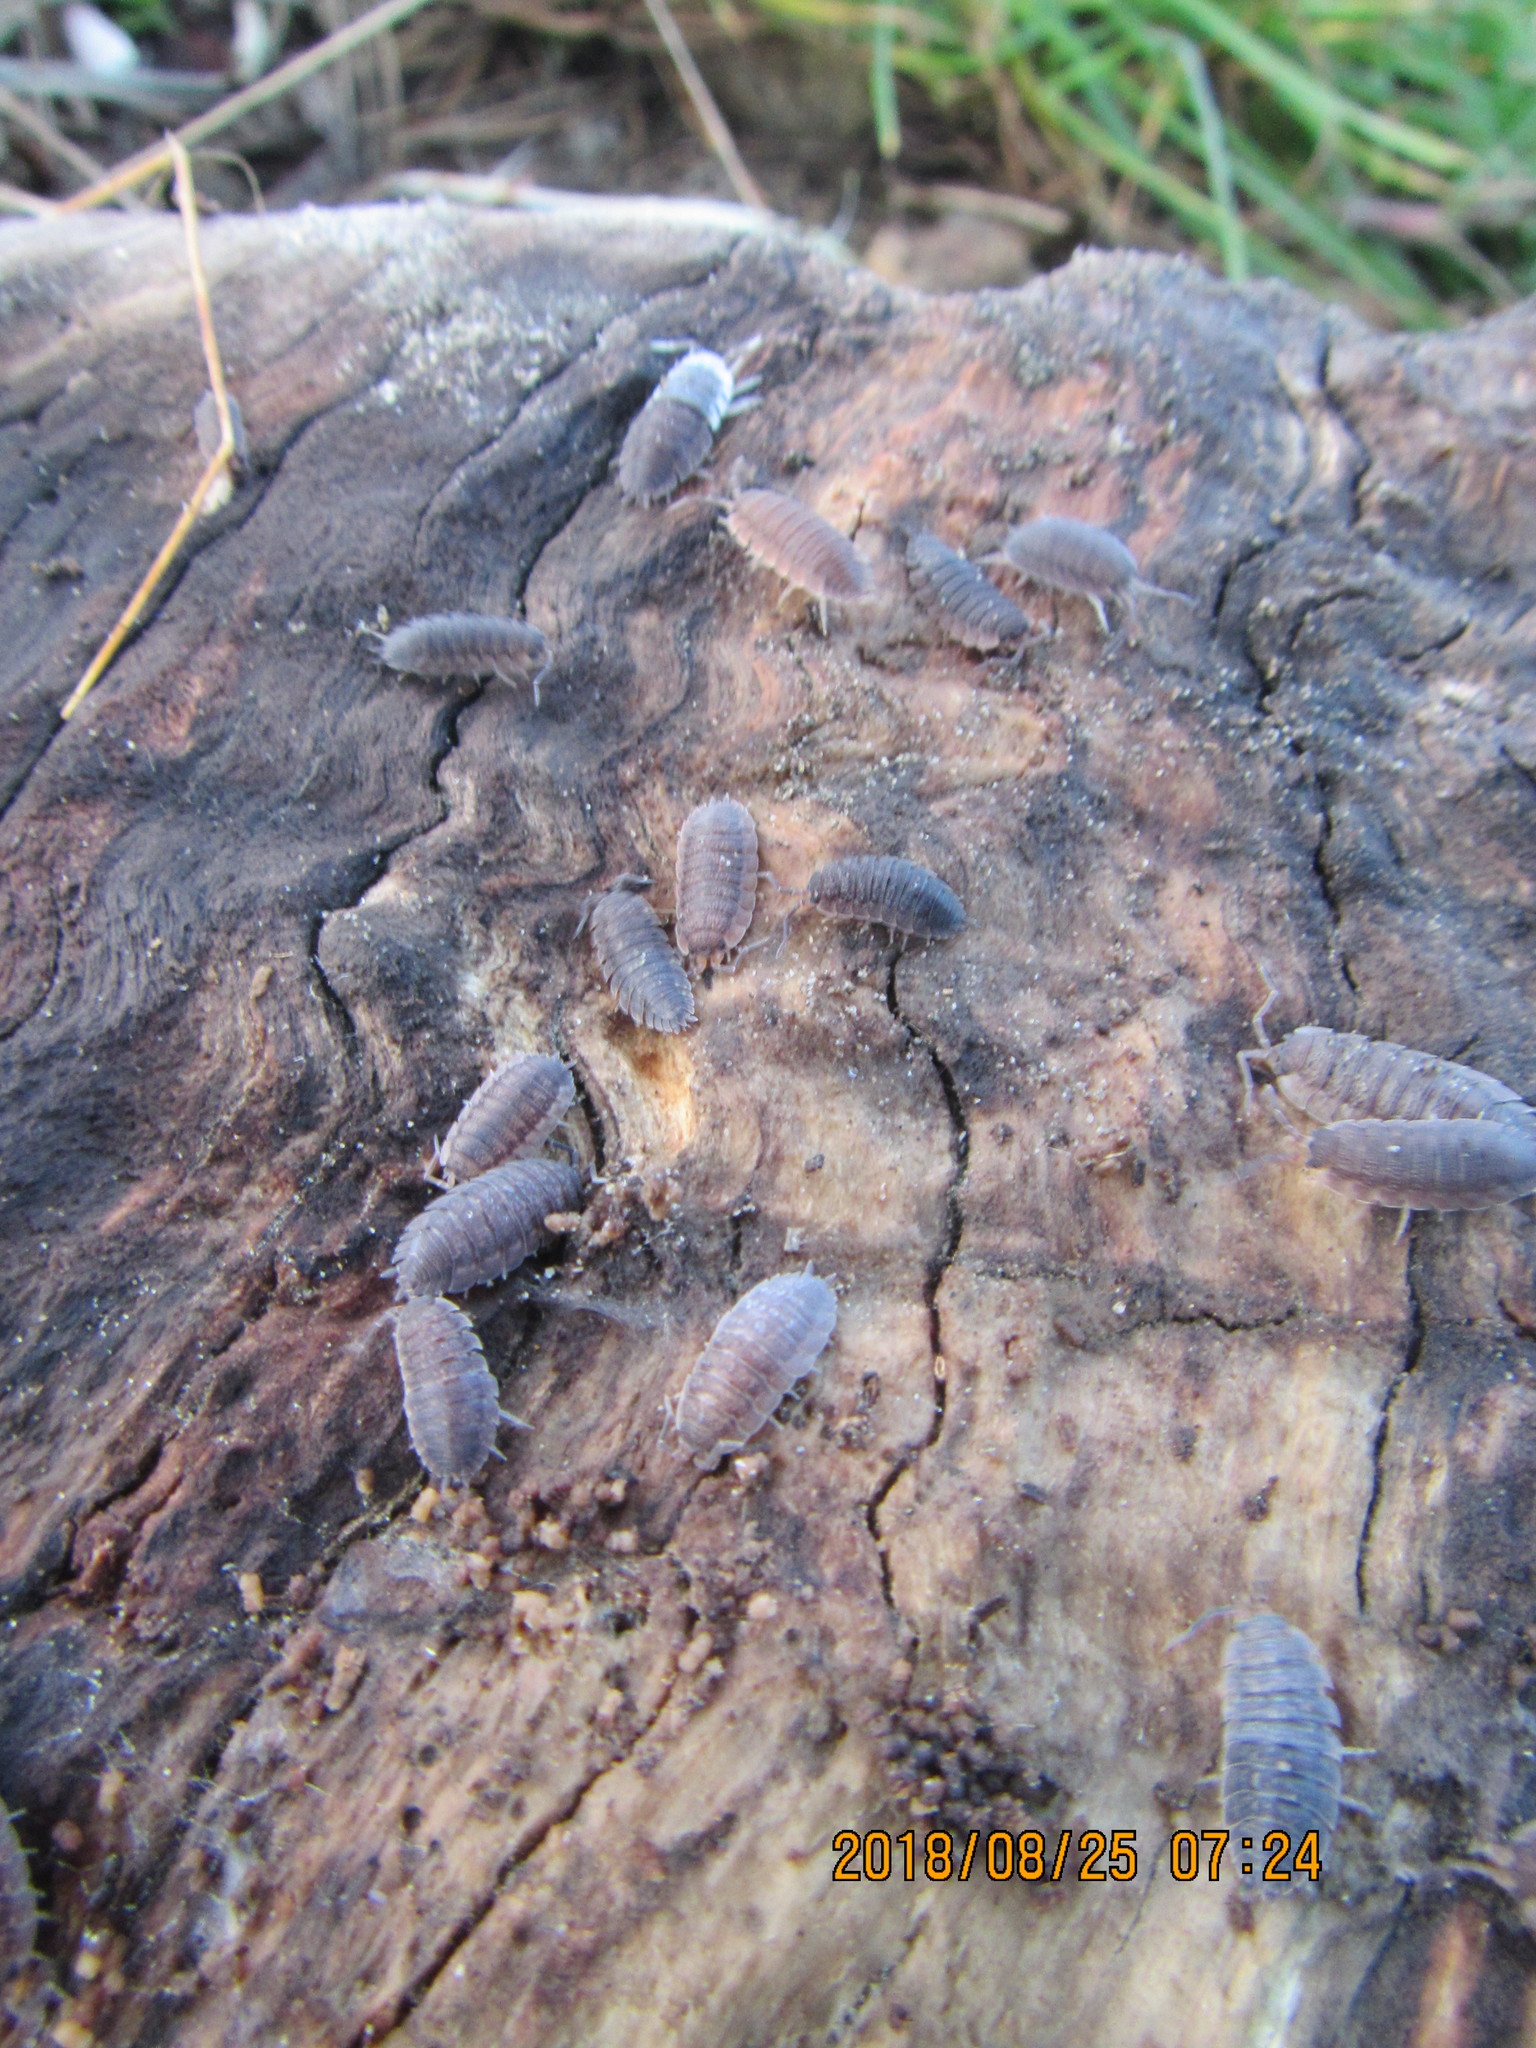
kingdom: Animalia
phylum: Arthropoda
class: Malacostraca
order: Isopoda
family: Porcellionidae
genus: Porcellio
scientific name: Porcellio scaber
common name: Common rough woodlouse
